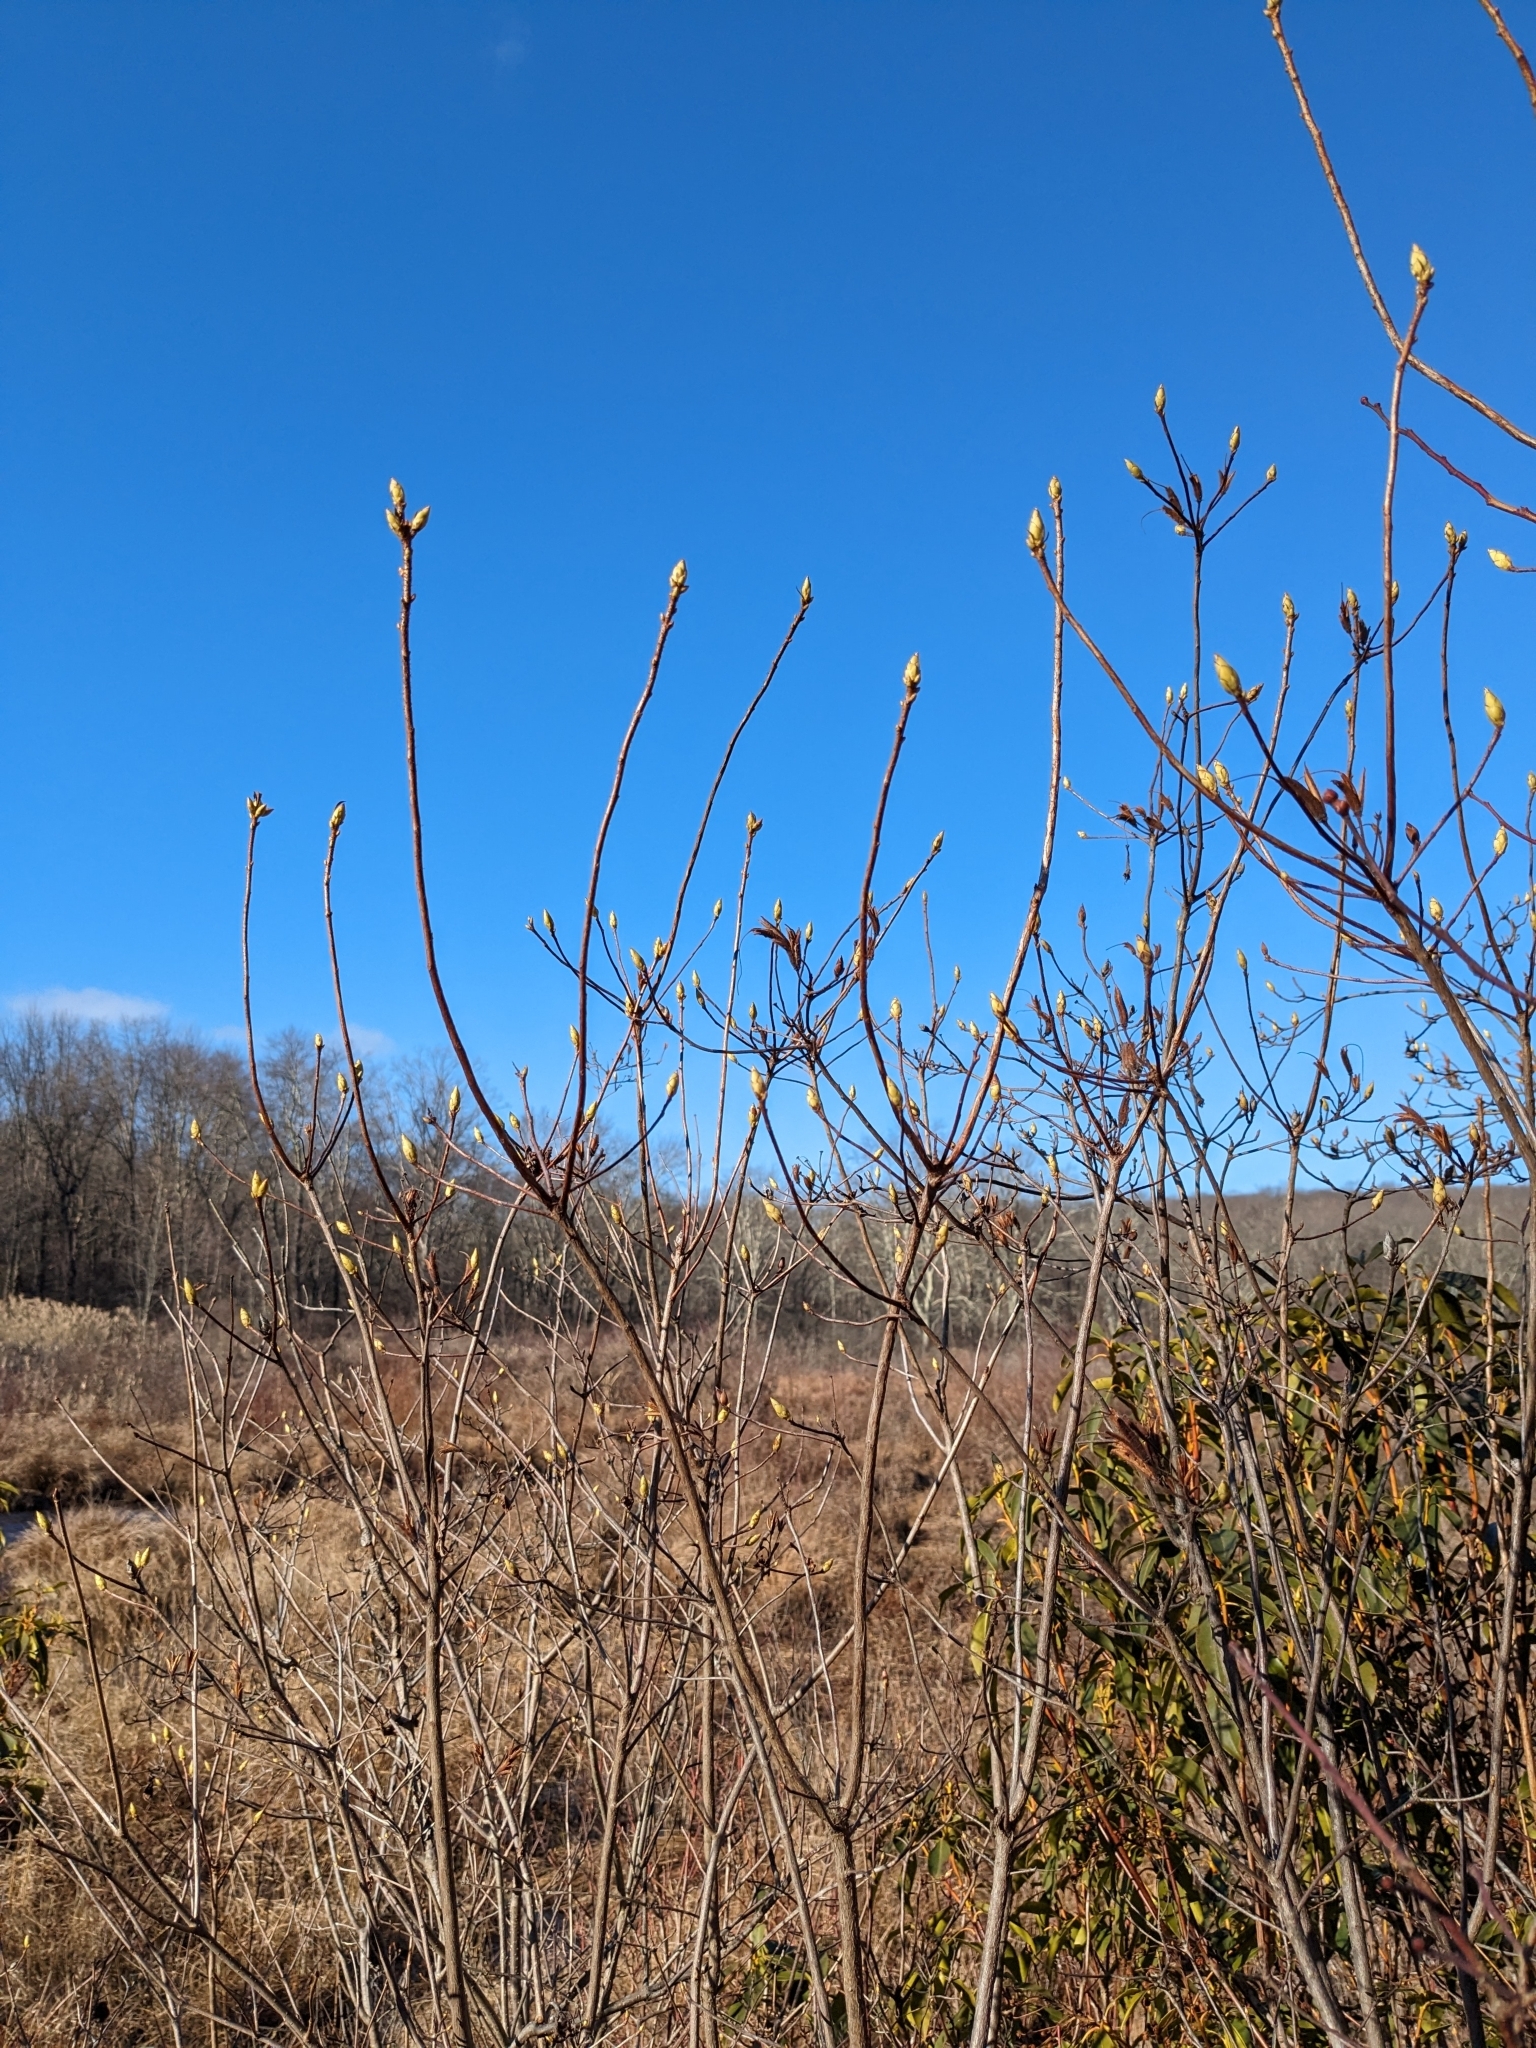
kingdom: Plantae
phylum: Tracheophyta
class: Magnoliopsida
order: Ericales
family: Ericaceae
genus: Rhododendron
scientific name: Rhododendron viscosum
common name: Clammy azalea
